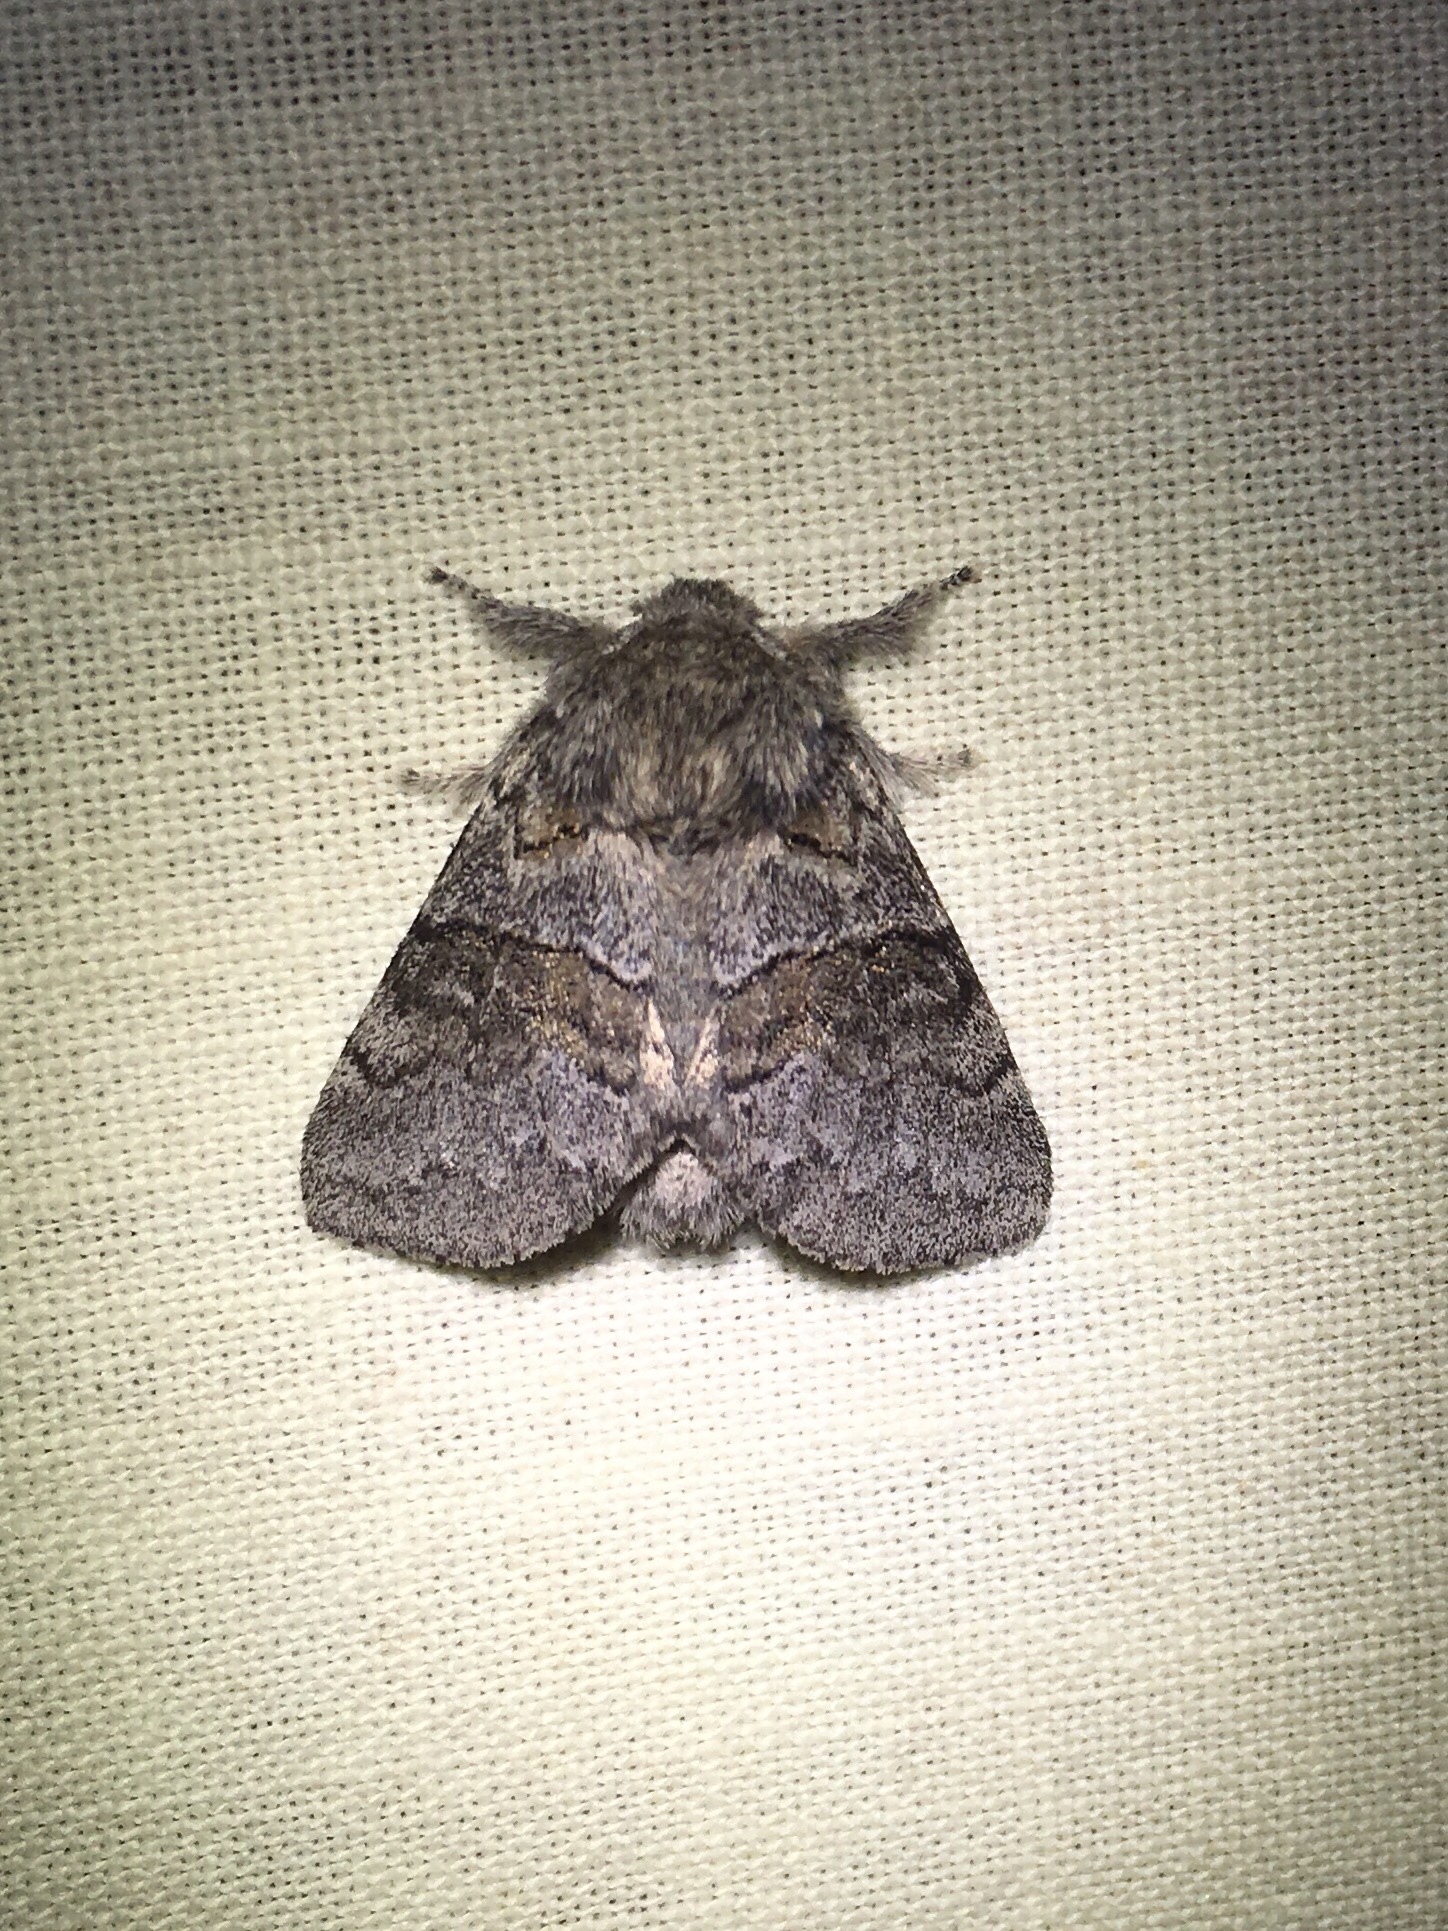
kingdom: Animalia
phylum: Arthropoda
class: Insecta
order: Lepidoptera
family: Notodontidae
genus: Gluphisia
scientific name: Gluphisia septentrionis
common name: Common gluphisia
